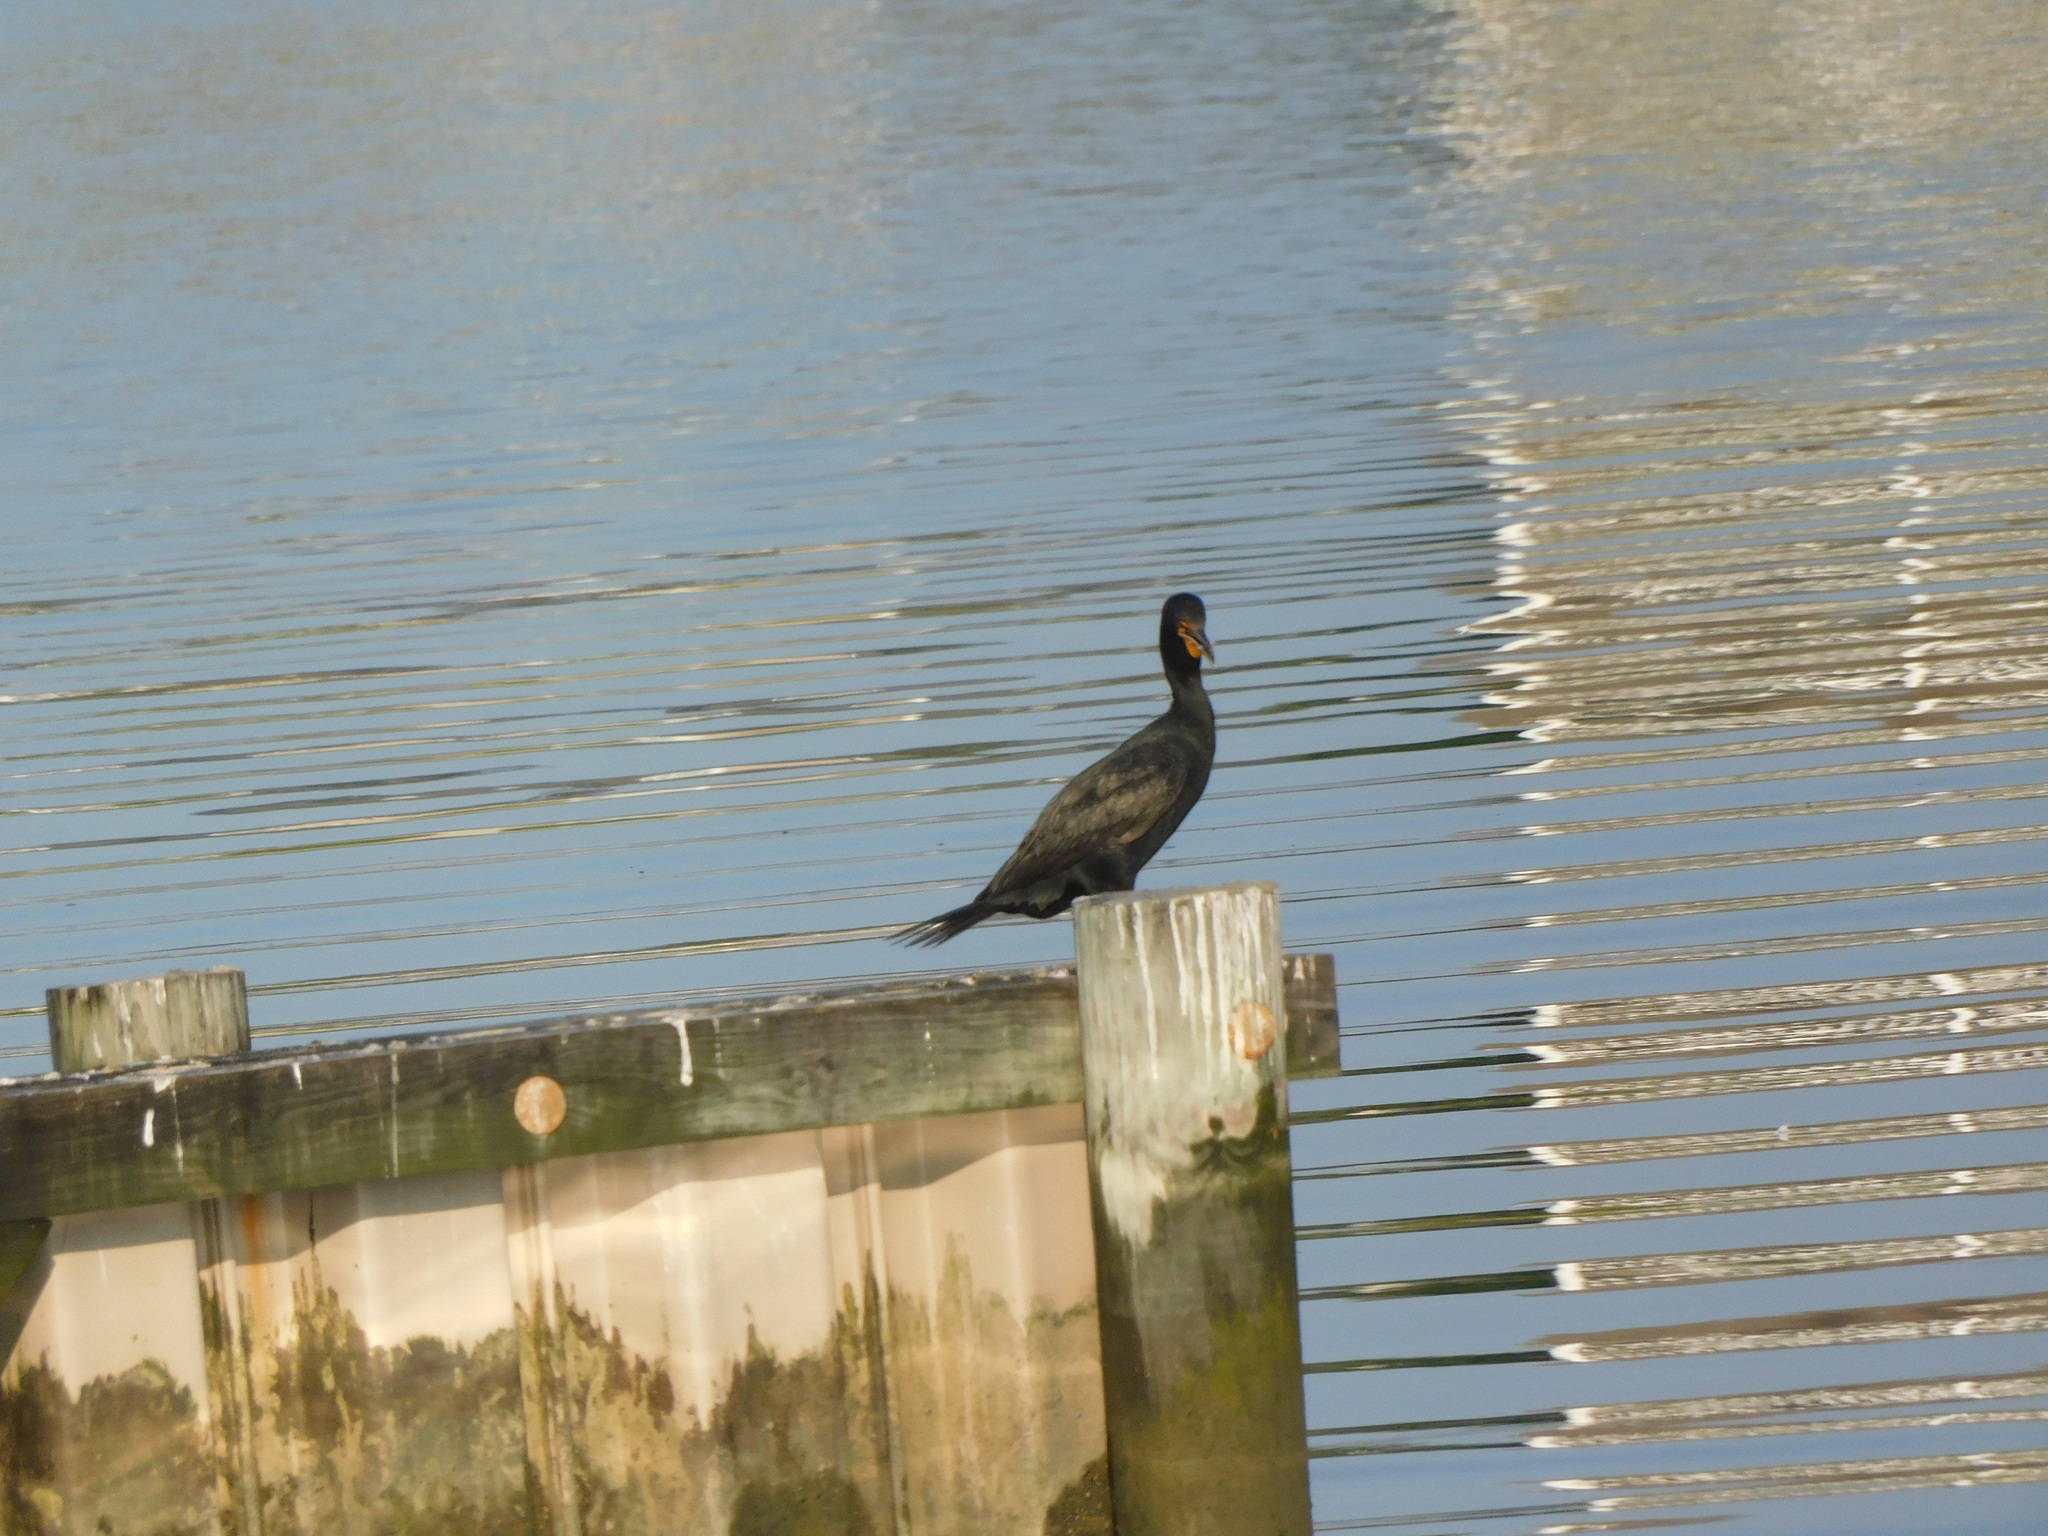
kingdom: Animalia
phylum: Chordata
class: Aves
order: Suliformes
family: Phalacrocoracidae
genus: Phalacrocorax
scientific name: Phalacrocorax auritus
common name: Double-crested cormorant
